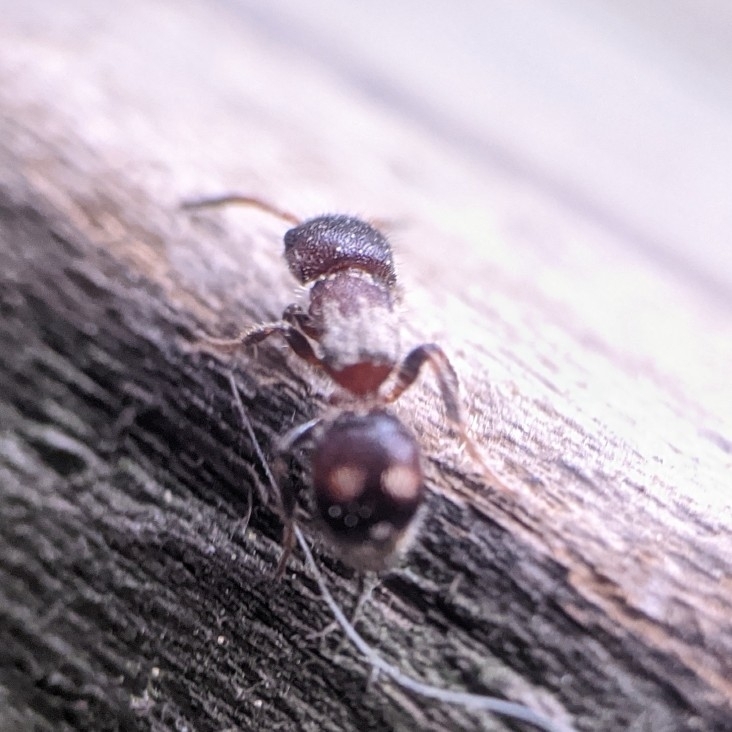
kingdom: Animalia
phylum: Arthropoda
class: Insecta
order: Hymenoptera
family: Mutillidae
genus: Pseudomethoca
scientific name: Pseudomethoca
